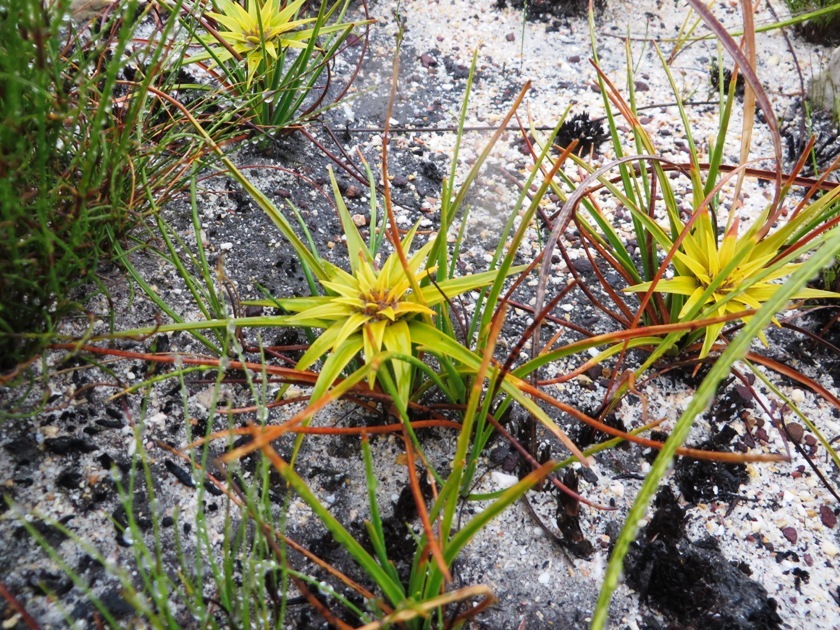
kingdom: Plantae
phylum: Tracheophyta
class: Liliopsida
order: Poales
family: Cyperaceae
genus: Ficinia
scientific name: Ficinia radiata
